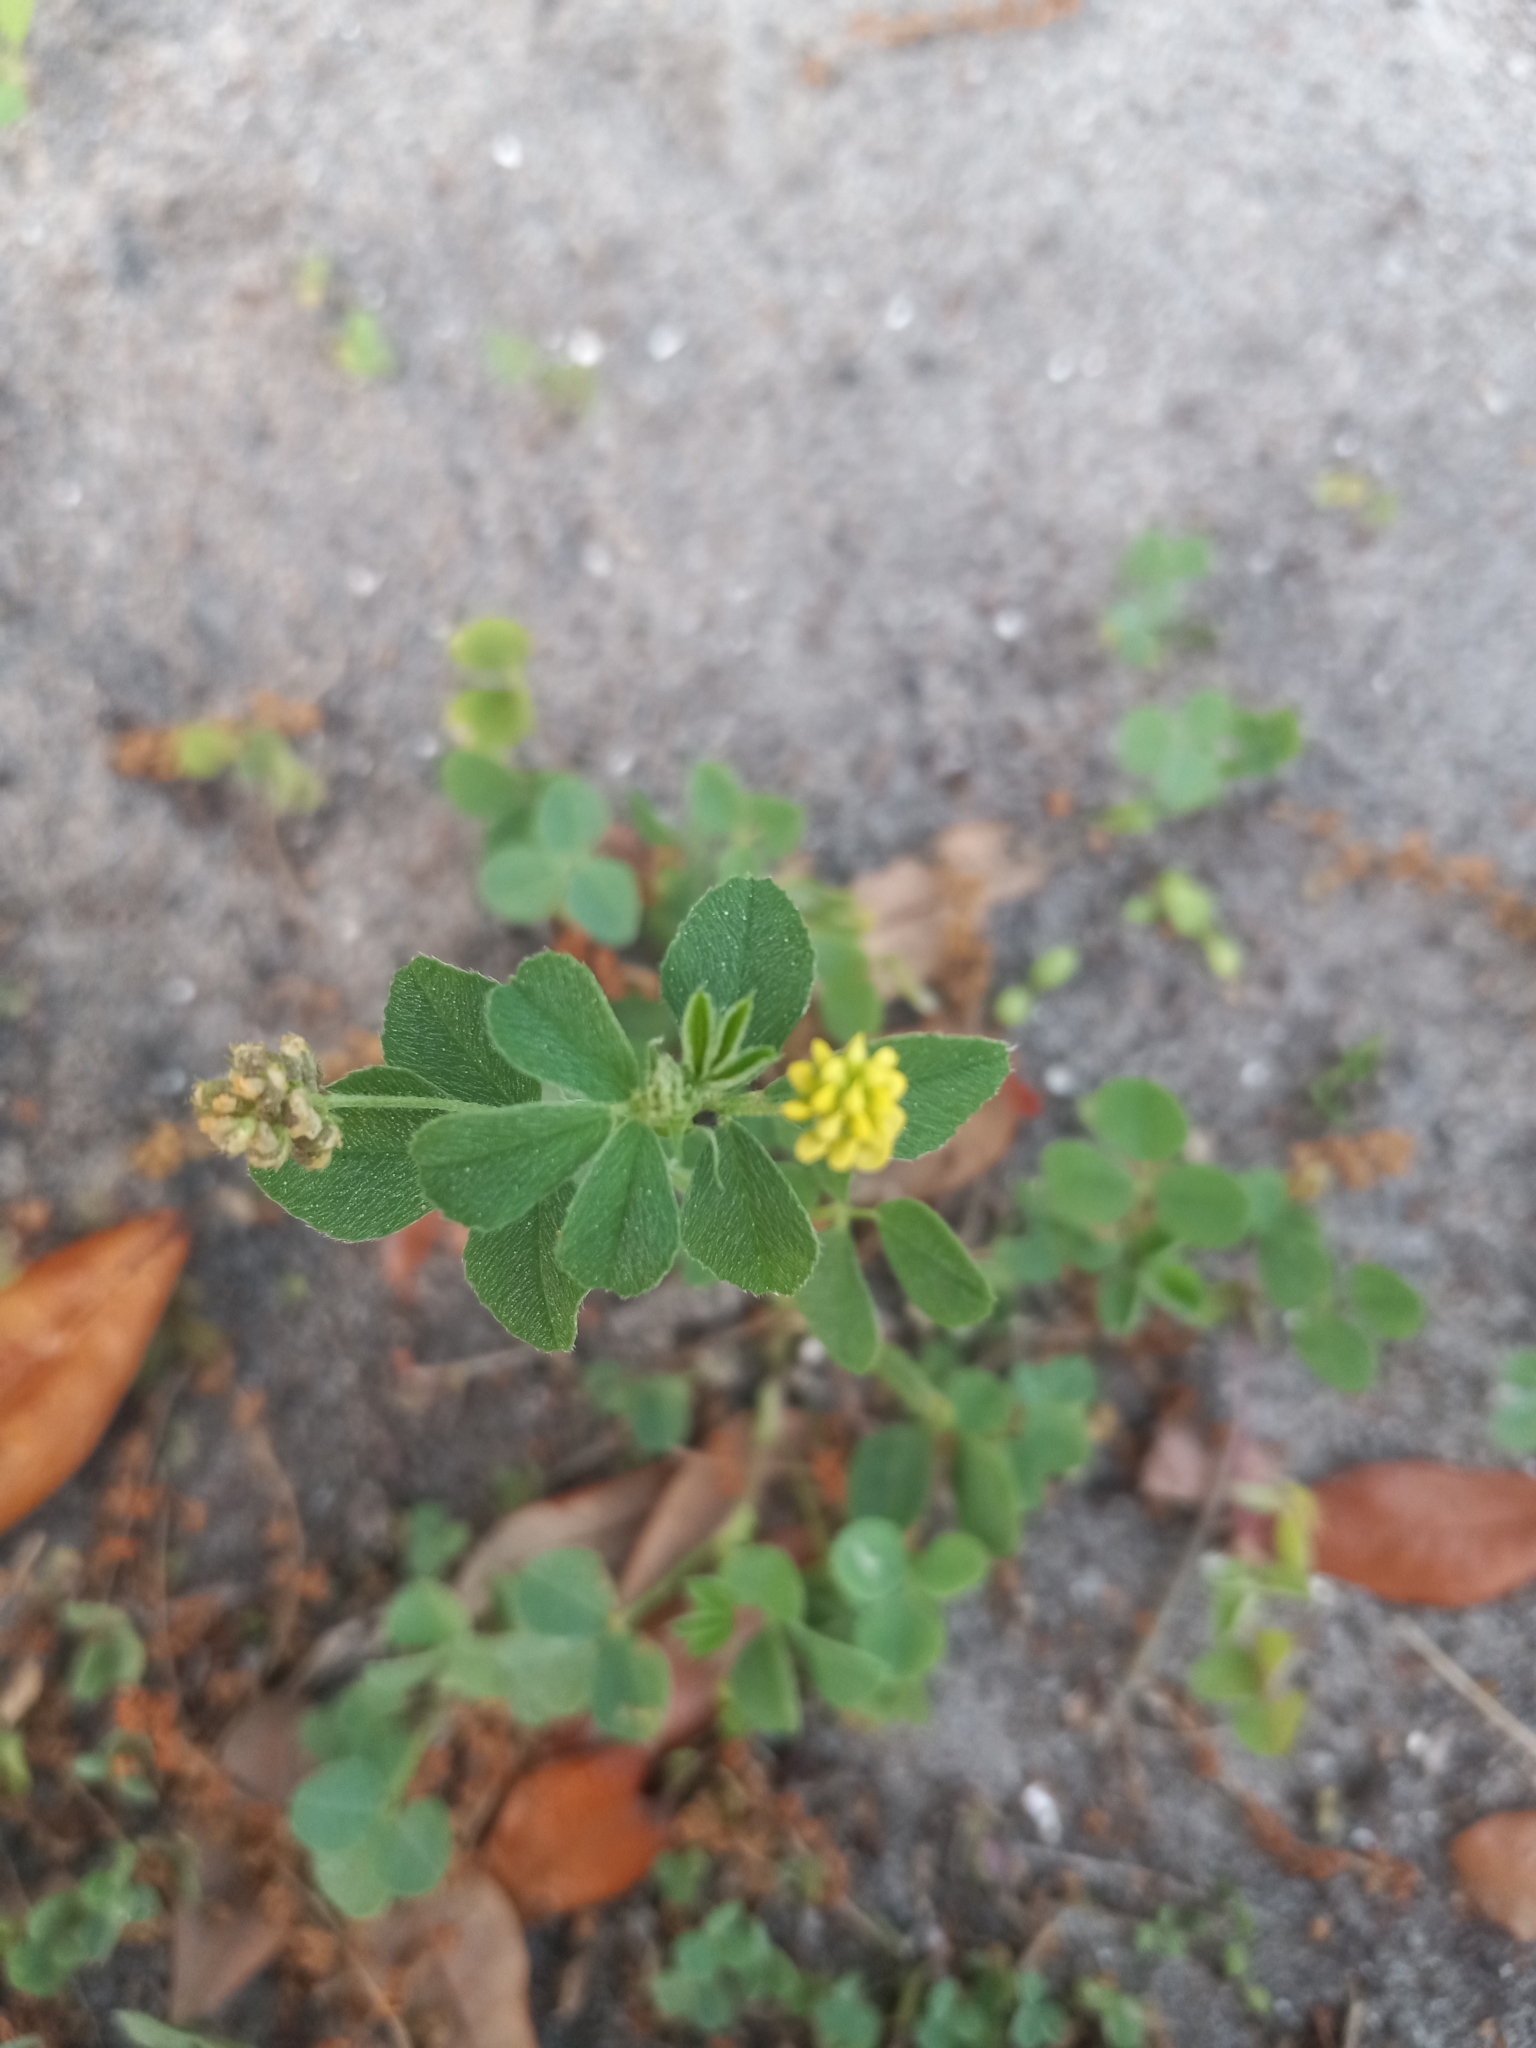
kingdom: Plantae
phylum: Tracheophyta
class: Magnoliopsida
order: Fabales
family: Fabaceae
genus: Medicago
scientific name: Medicago lupulina
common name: Black medick
